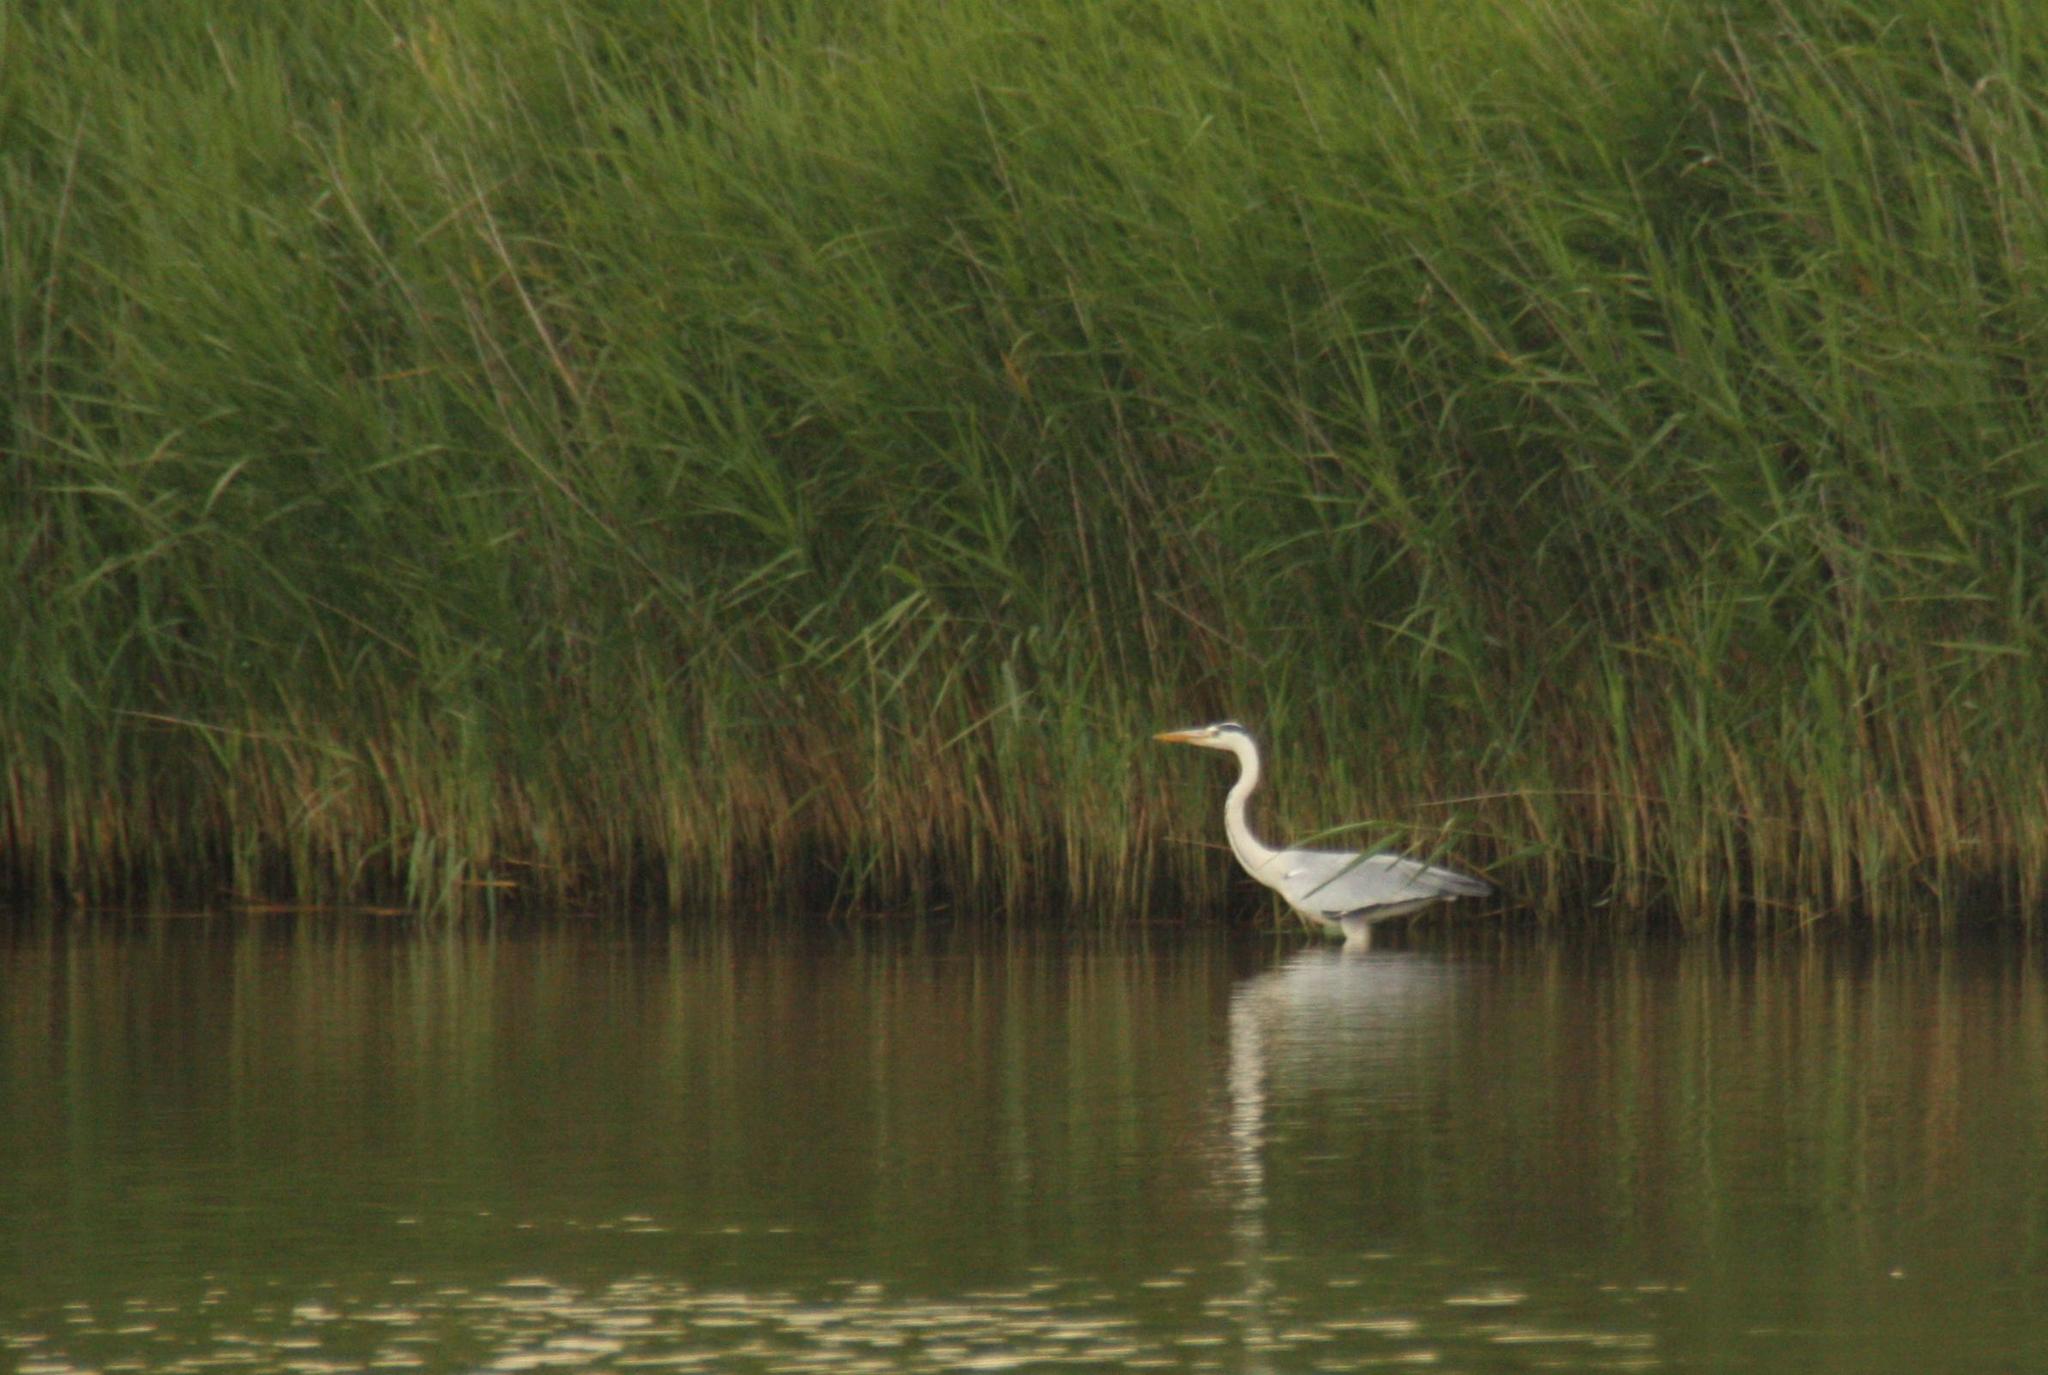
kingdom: Animalia
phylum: Chordata
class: Aves
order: Pelecaniformes
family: Ardeidae
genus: Ardea
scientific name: Ardea cinerea
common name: Grey heron
